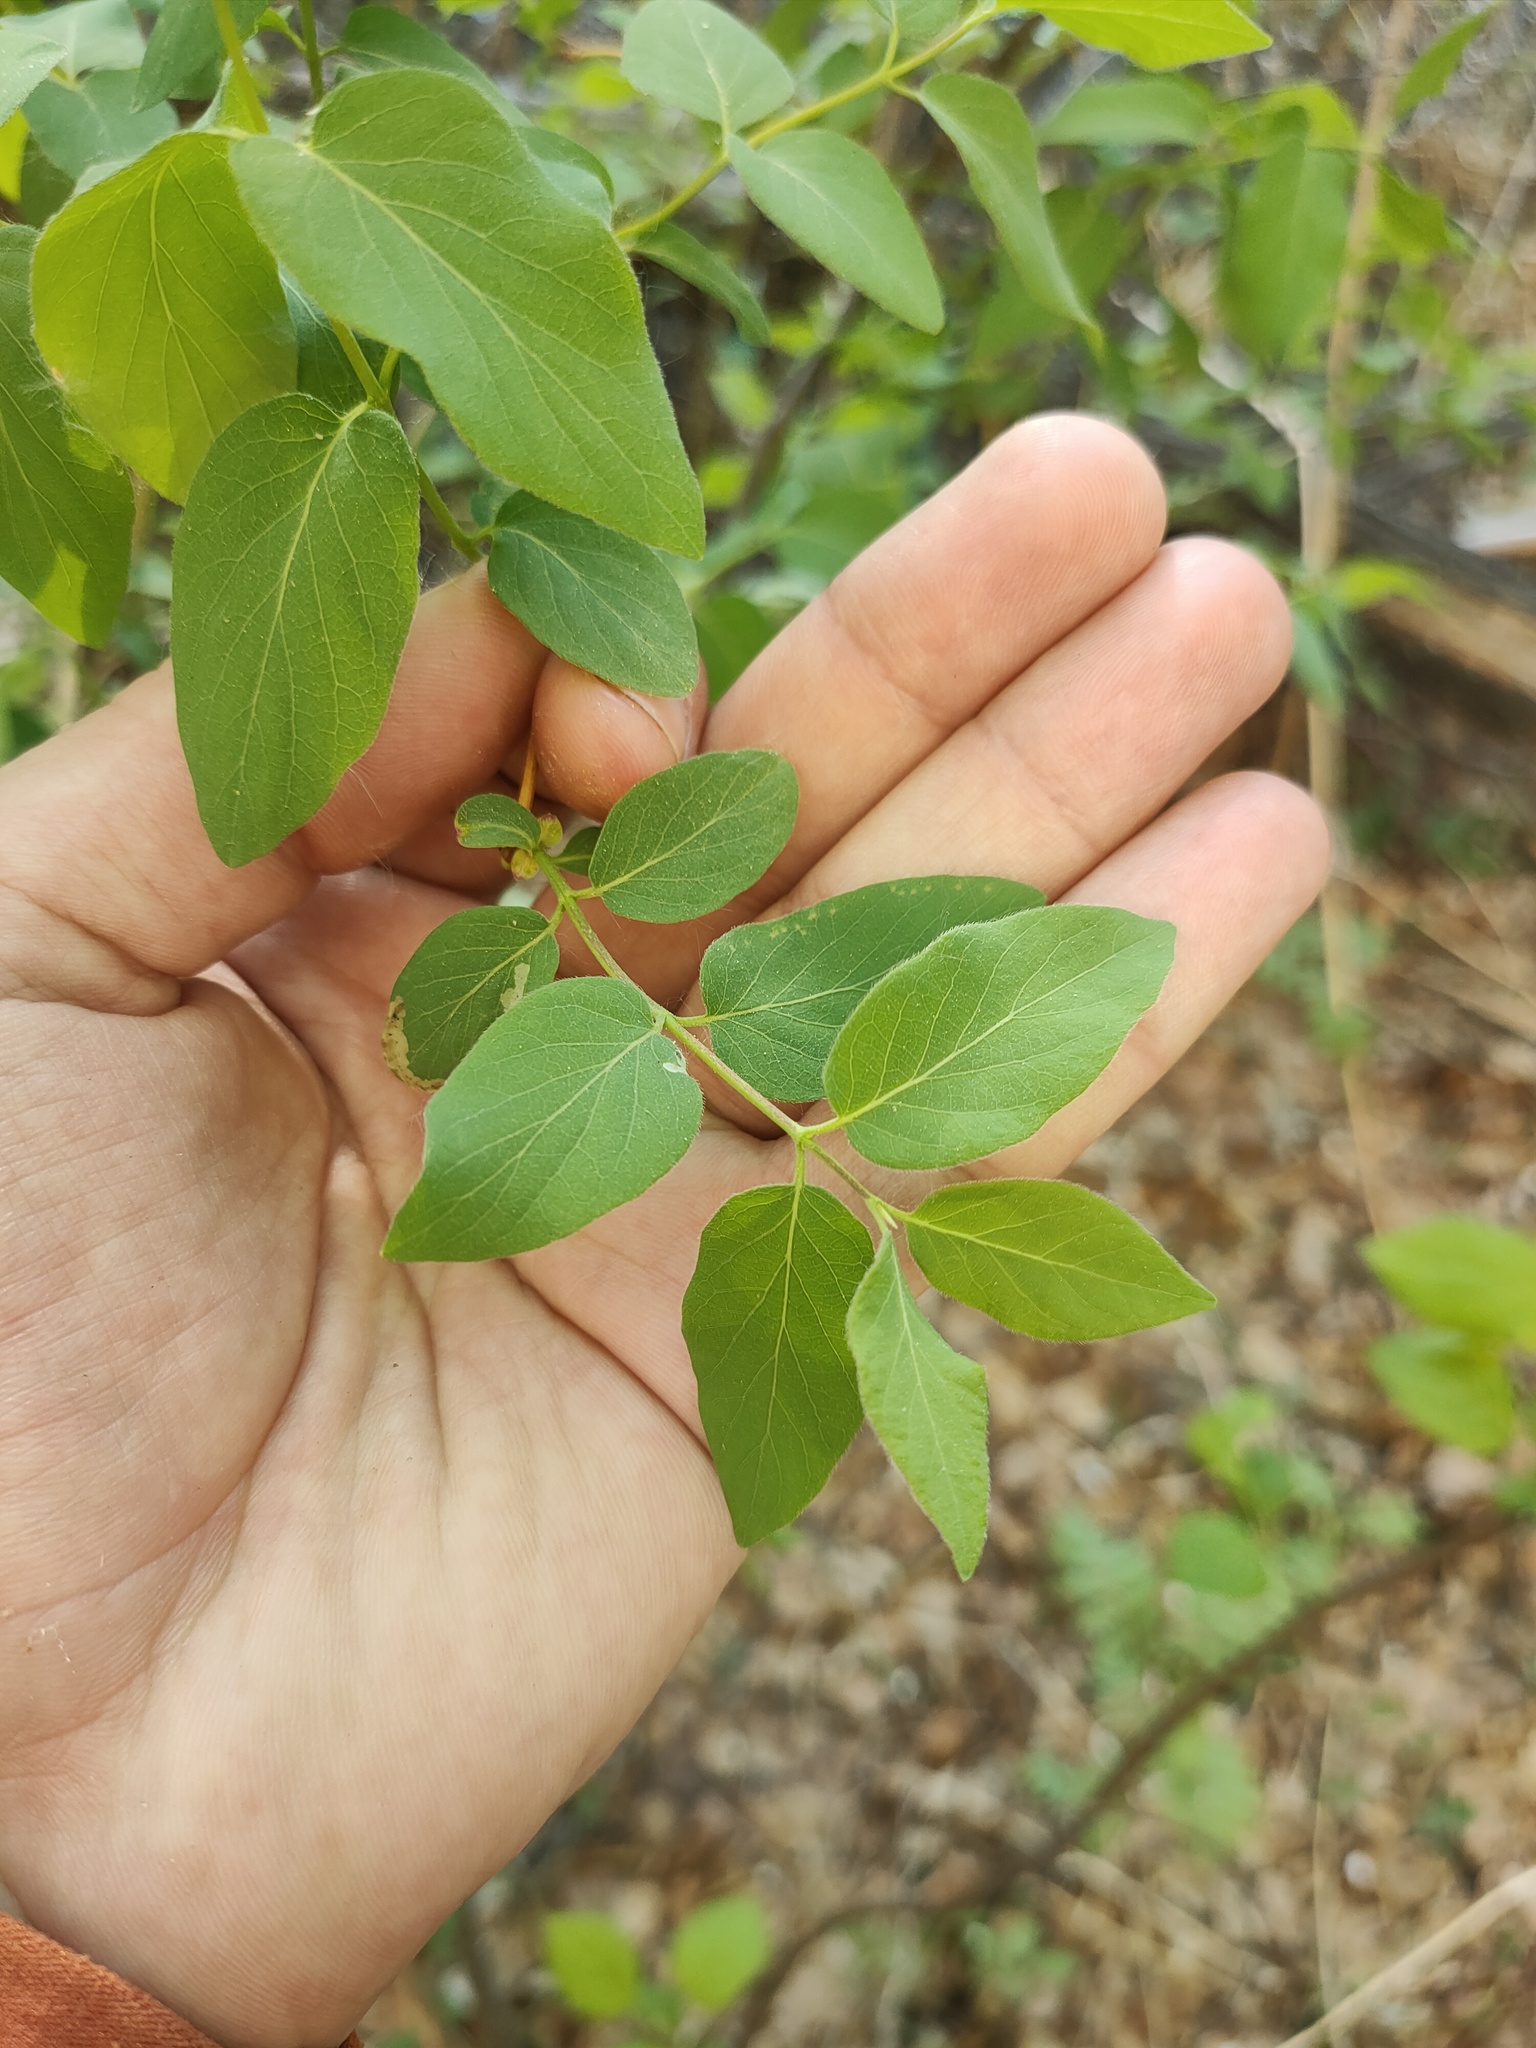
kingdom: Plantae
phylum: Tracheophyta
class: Magnoliopsida
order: Dipsacales
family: Caprifoliaceae
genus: Lonicera
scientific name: Lonicera tatarica
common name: Tatarian honeysuckle
